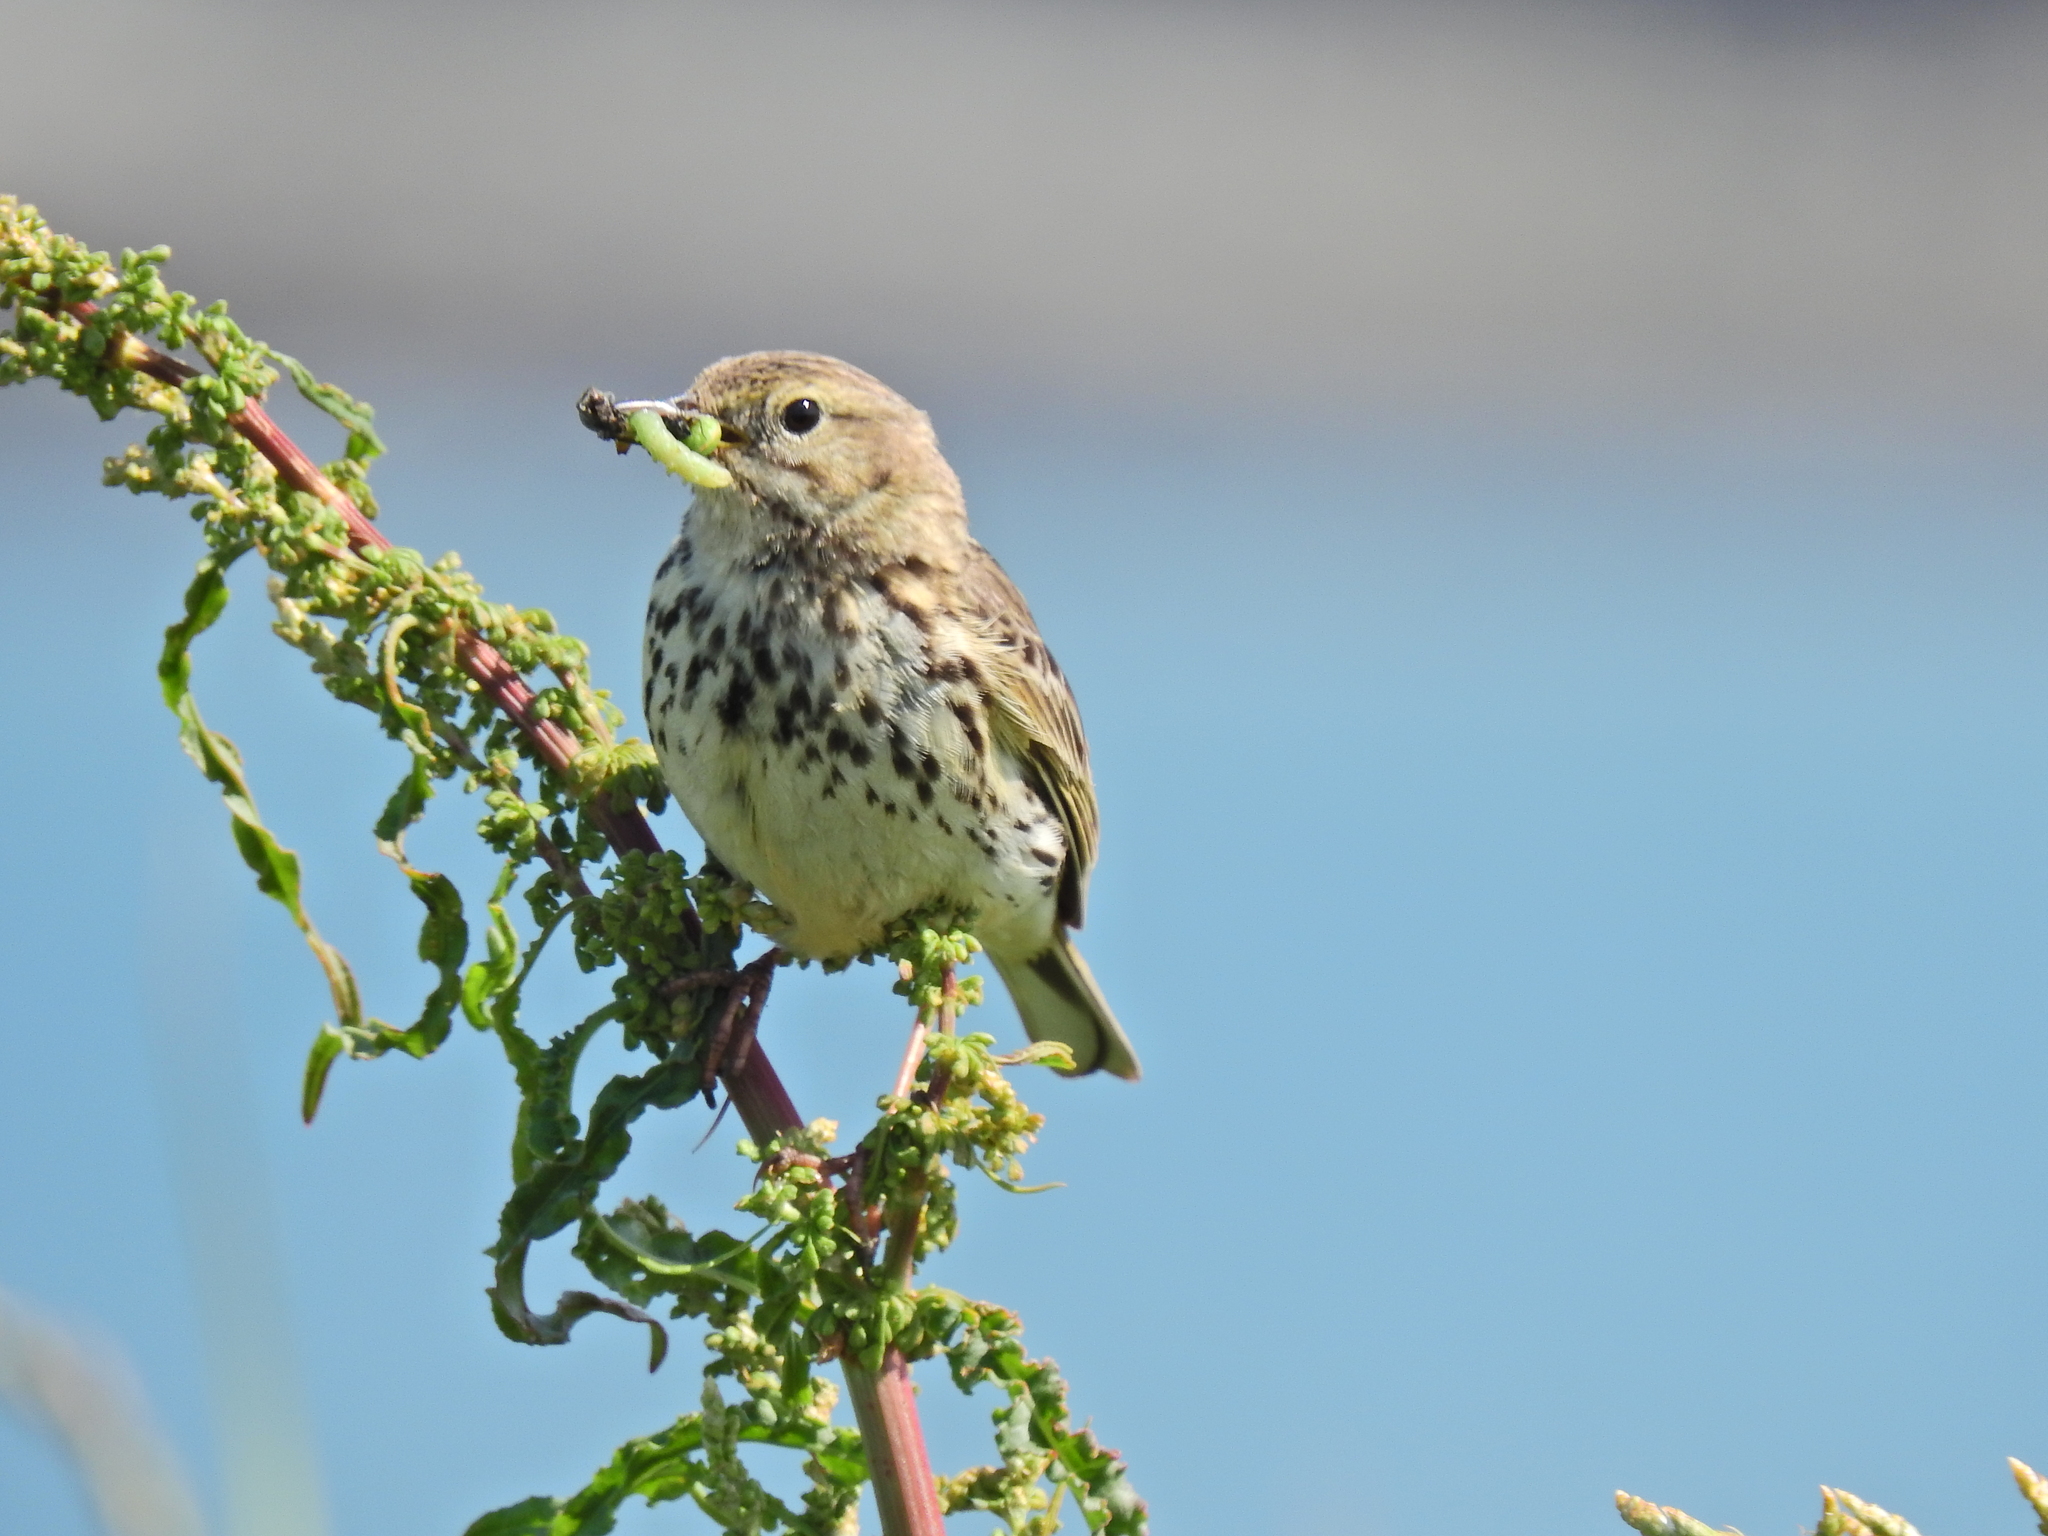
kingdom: Animalia
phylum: Chordata
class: Aves
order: Passeriformes
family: Motacillidae
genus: Anthus
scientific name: Anthus pratensis
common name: Meadow pipit
